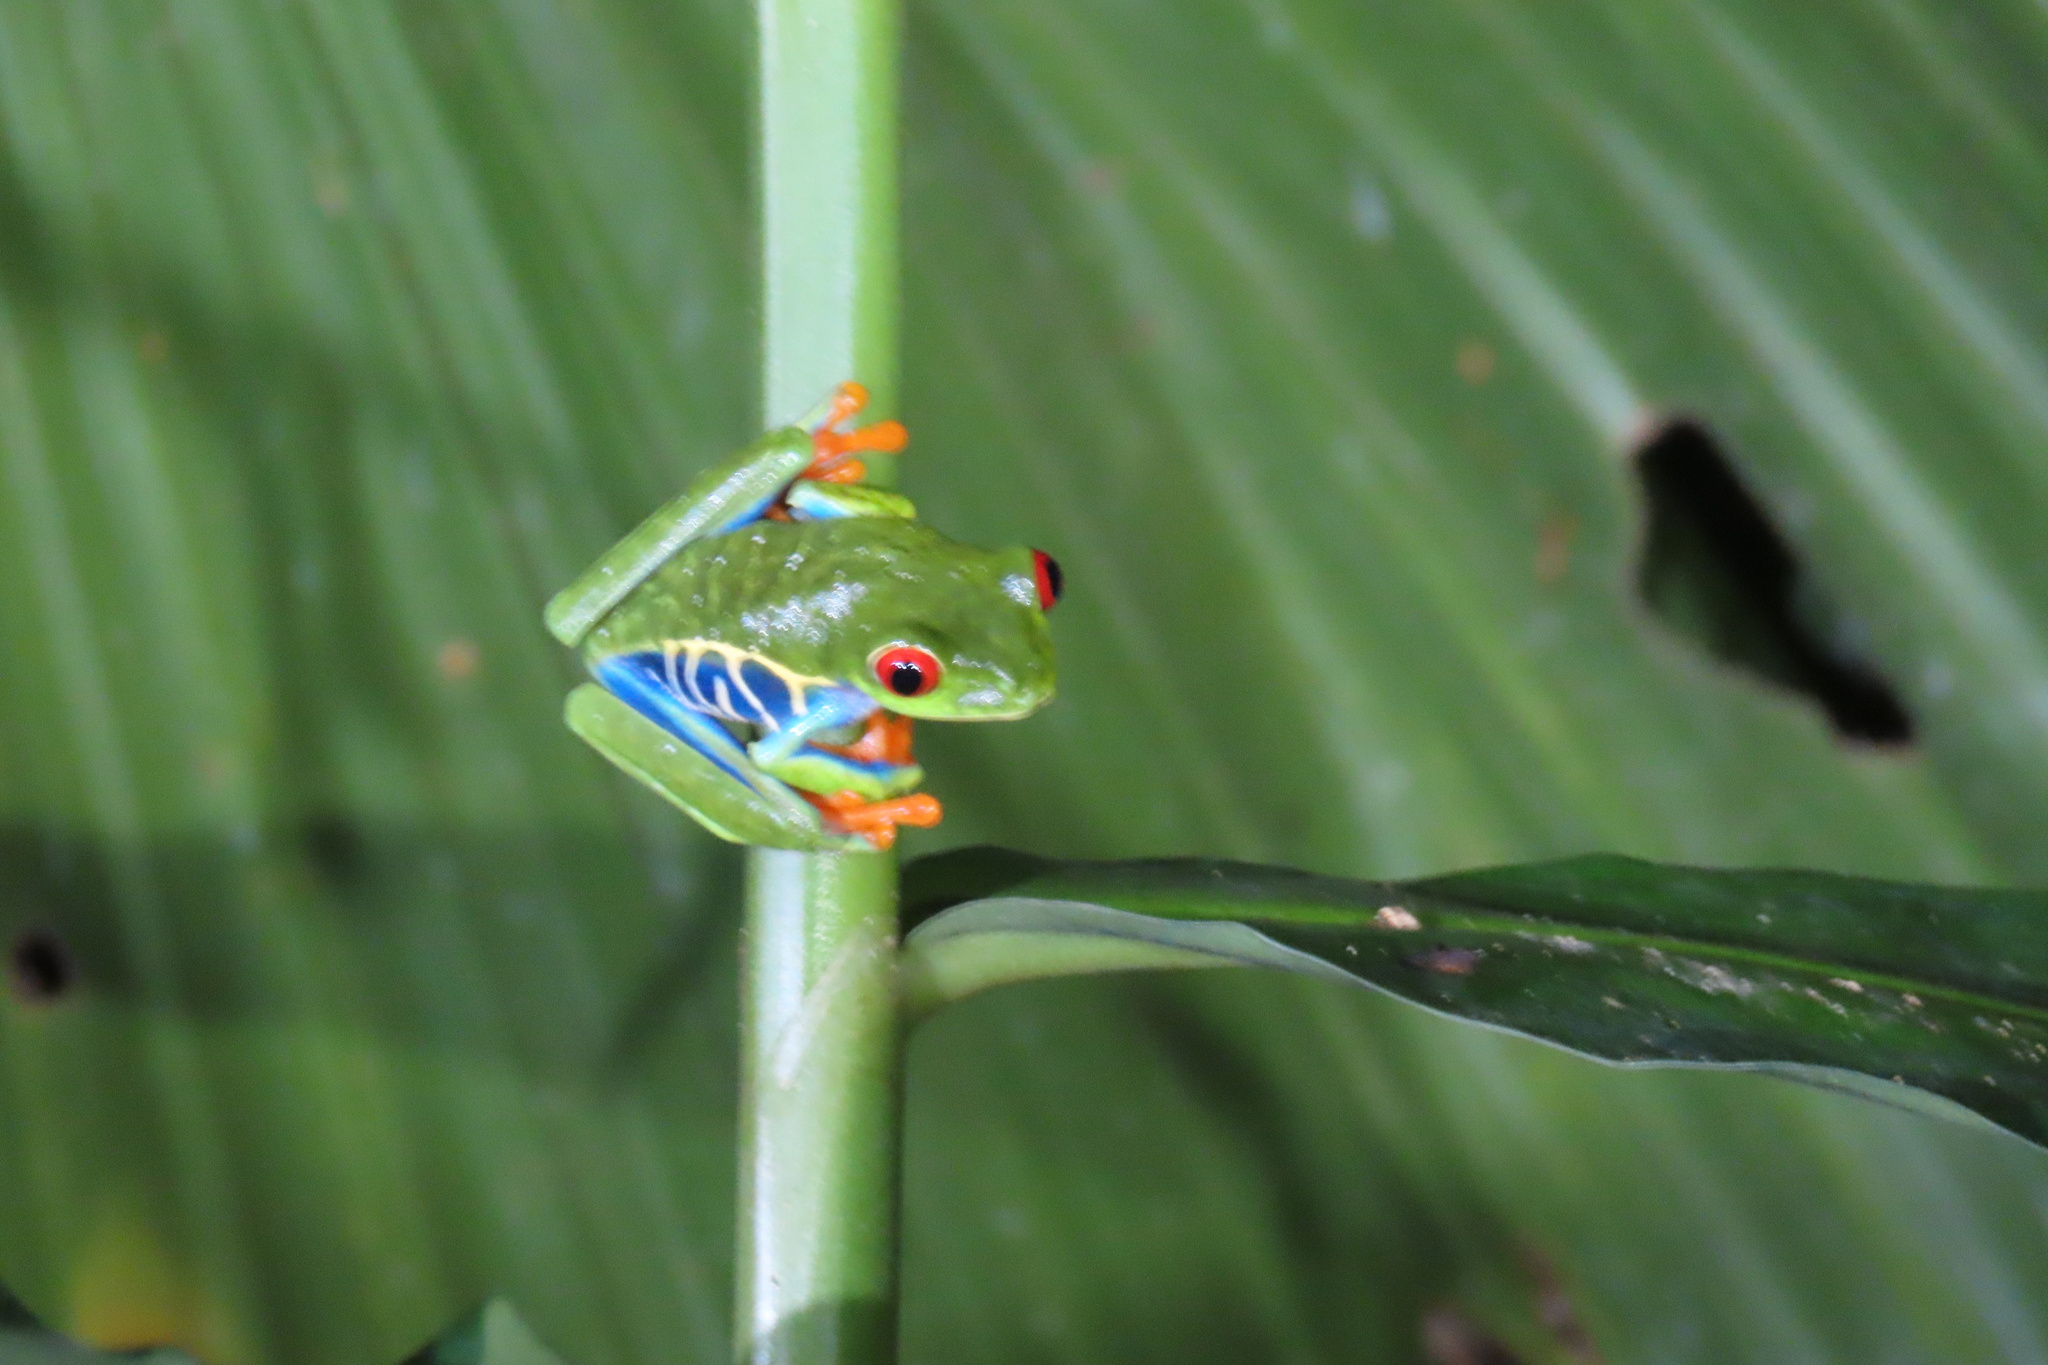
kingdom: Animalia
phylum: Chordata
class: Amphibia
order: Anura
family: Phyllomedusidae
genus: Agalychnis
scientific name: Agalychnis callidryas
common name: Red-eyed treefrog
